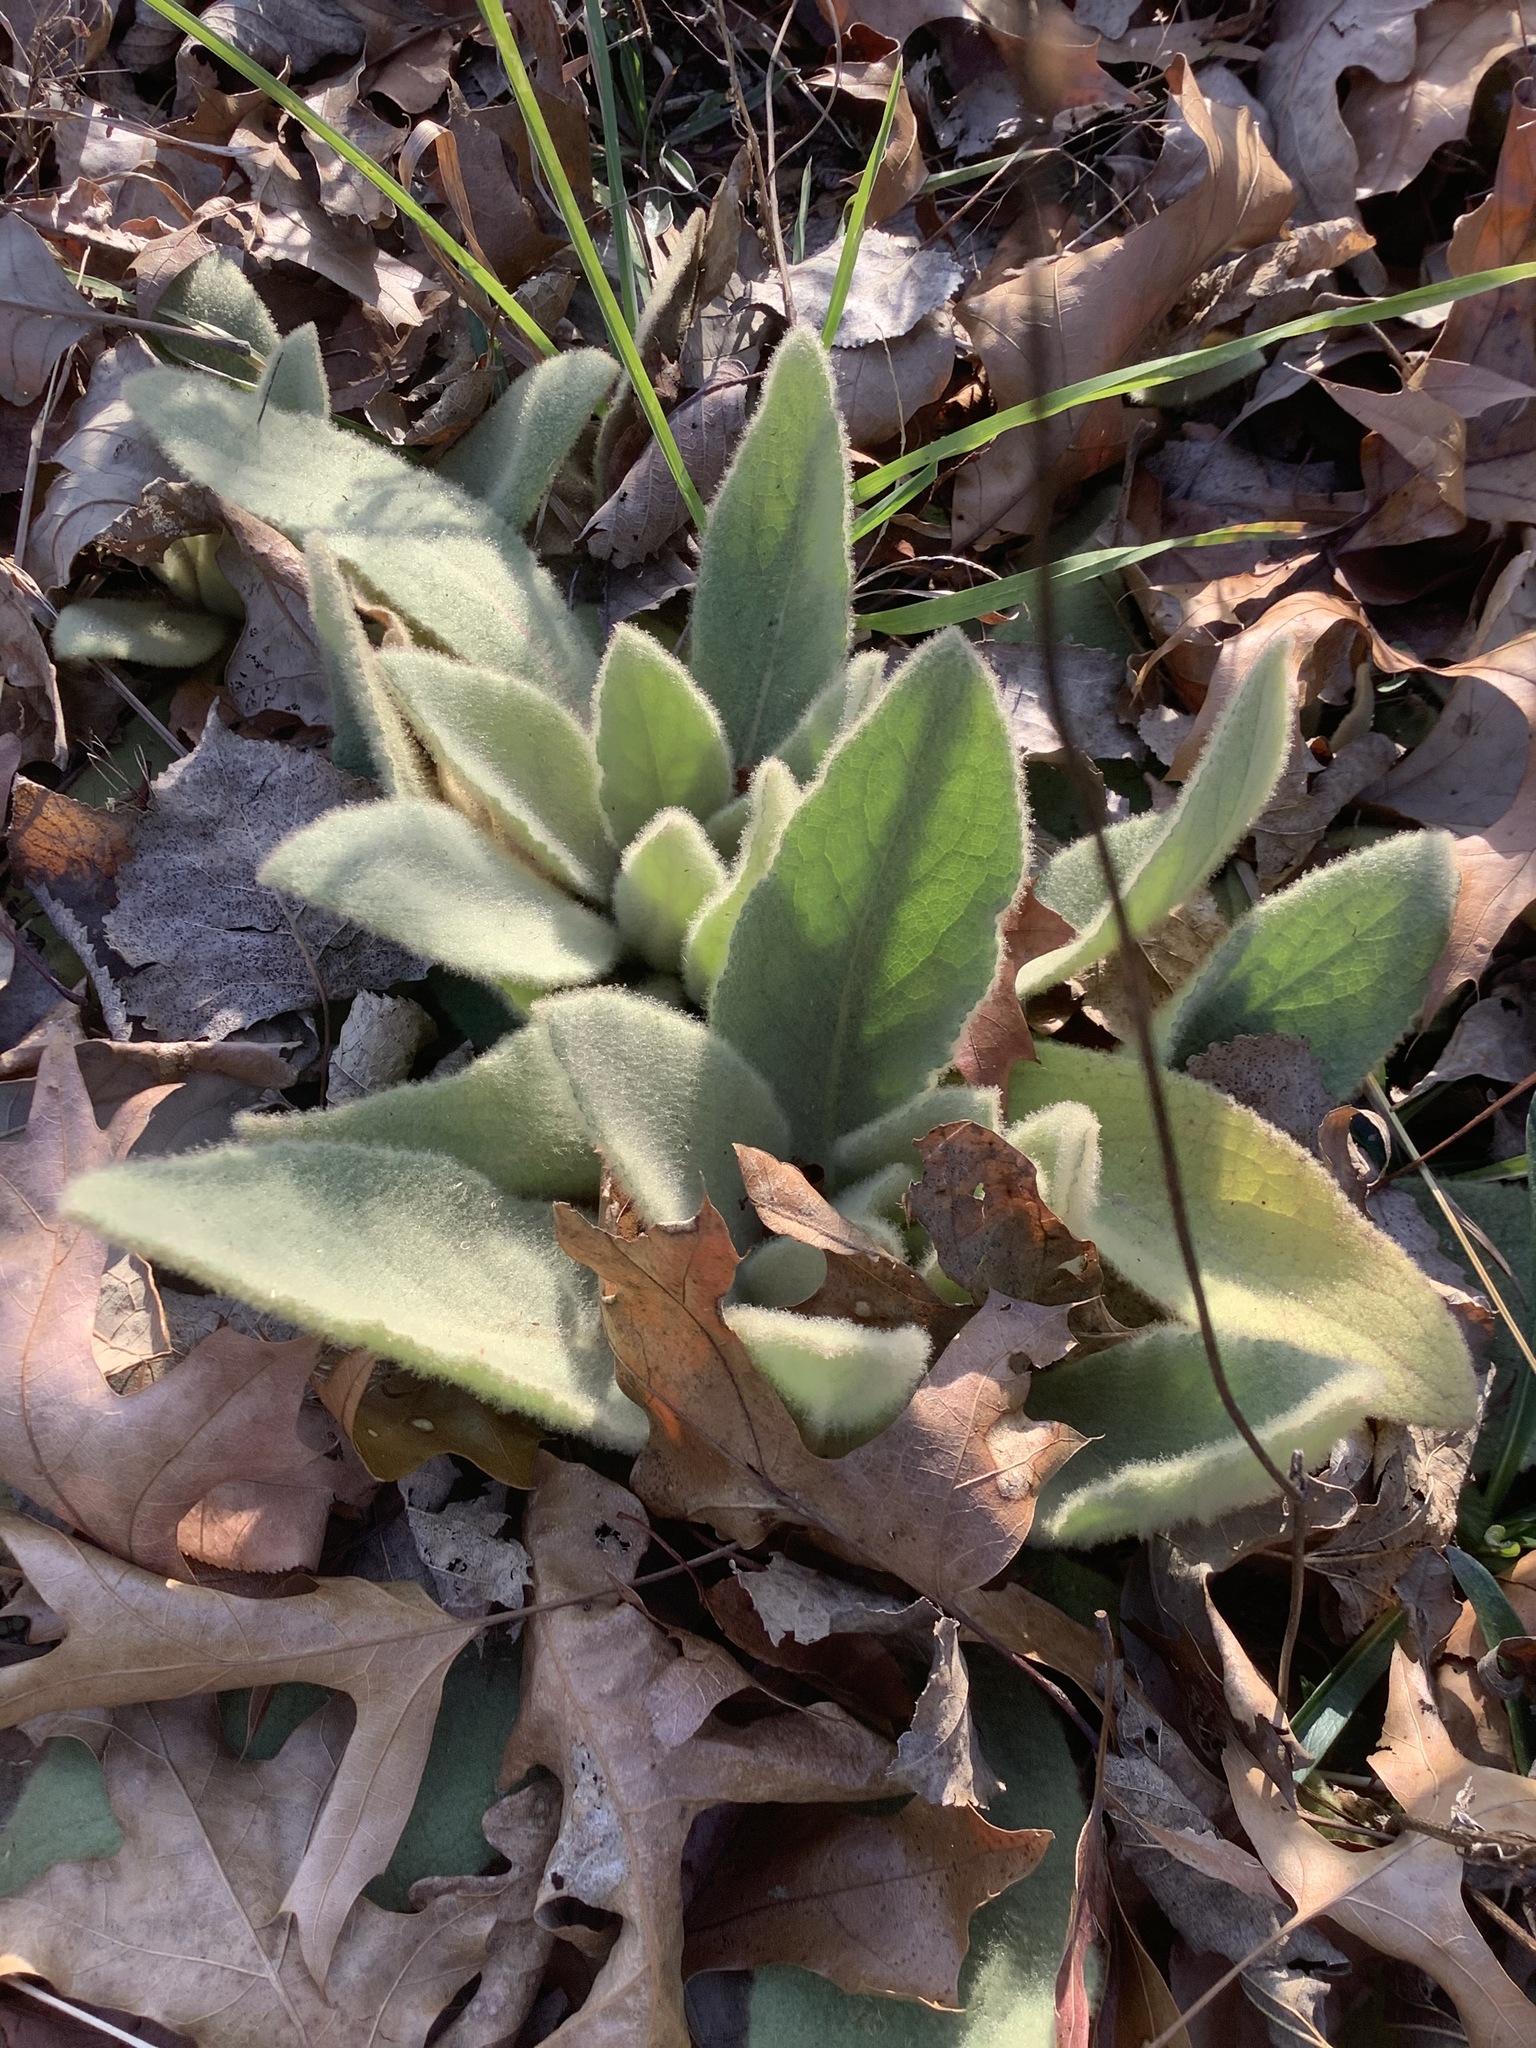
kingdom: Plantae
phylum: Tracheophyta
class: Magnoliopsida
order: Lamiales
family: Scrophulariaceae
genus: Verbascum
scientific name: Verbascum thapsus
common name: Common mullein
